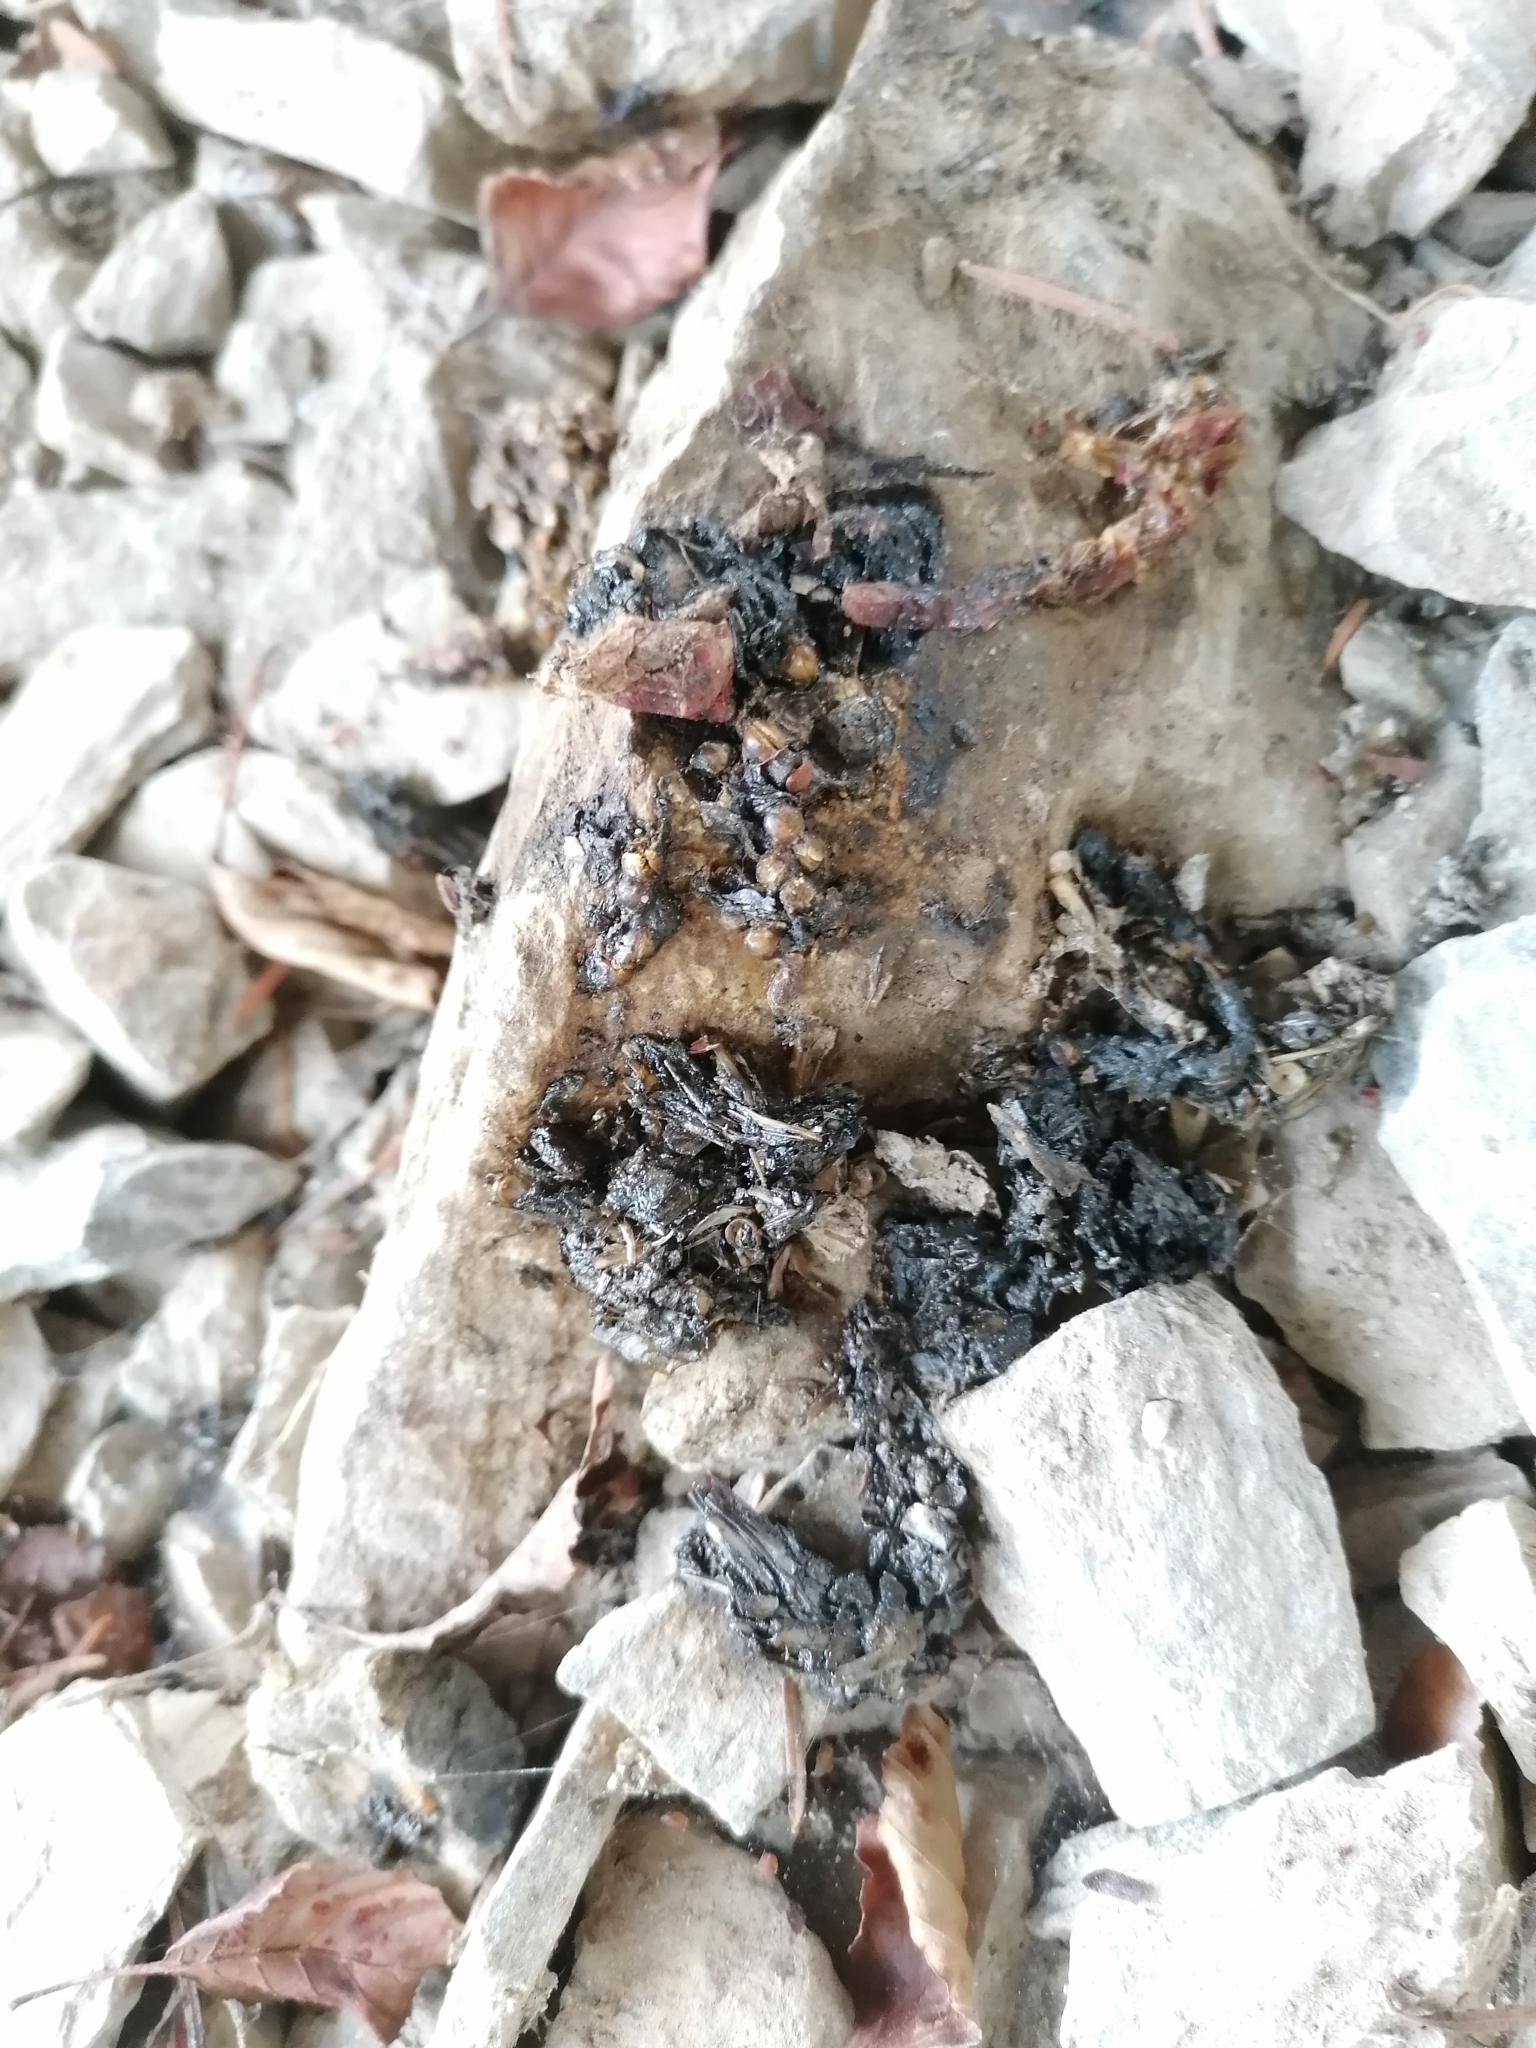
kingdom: Animalia
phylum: Chordata
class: Mammalia
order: Carnivora
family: Mustelidae
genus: Lutra
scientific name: Lutra lutra
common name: European otter
